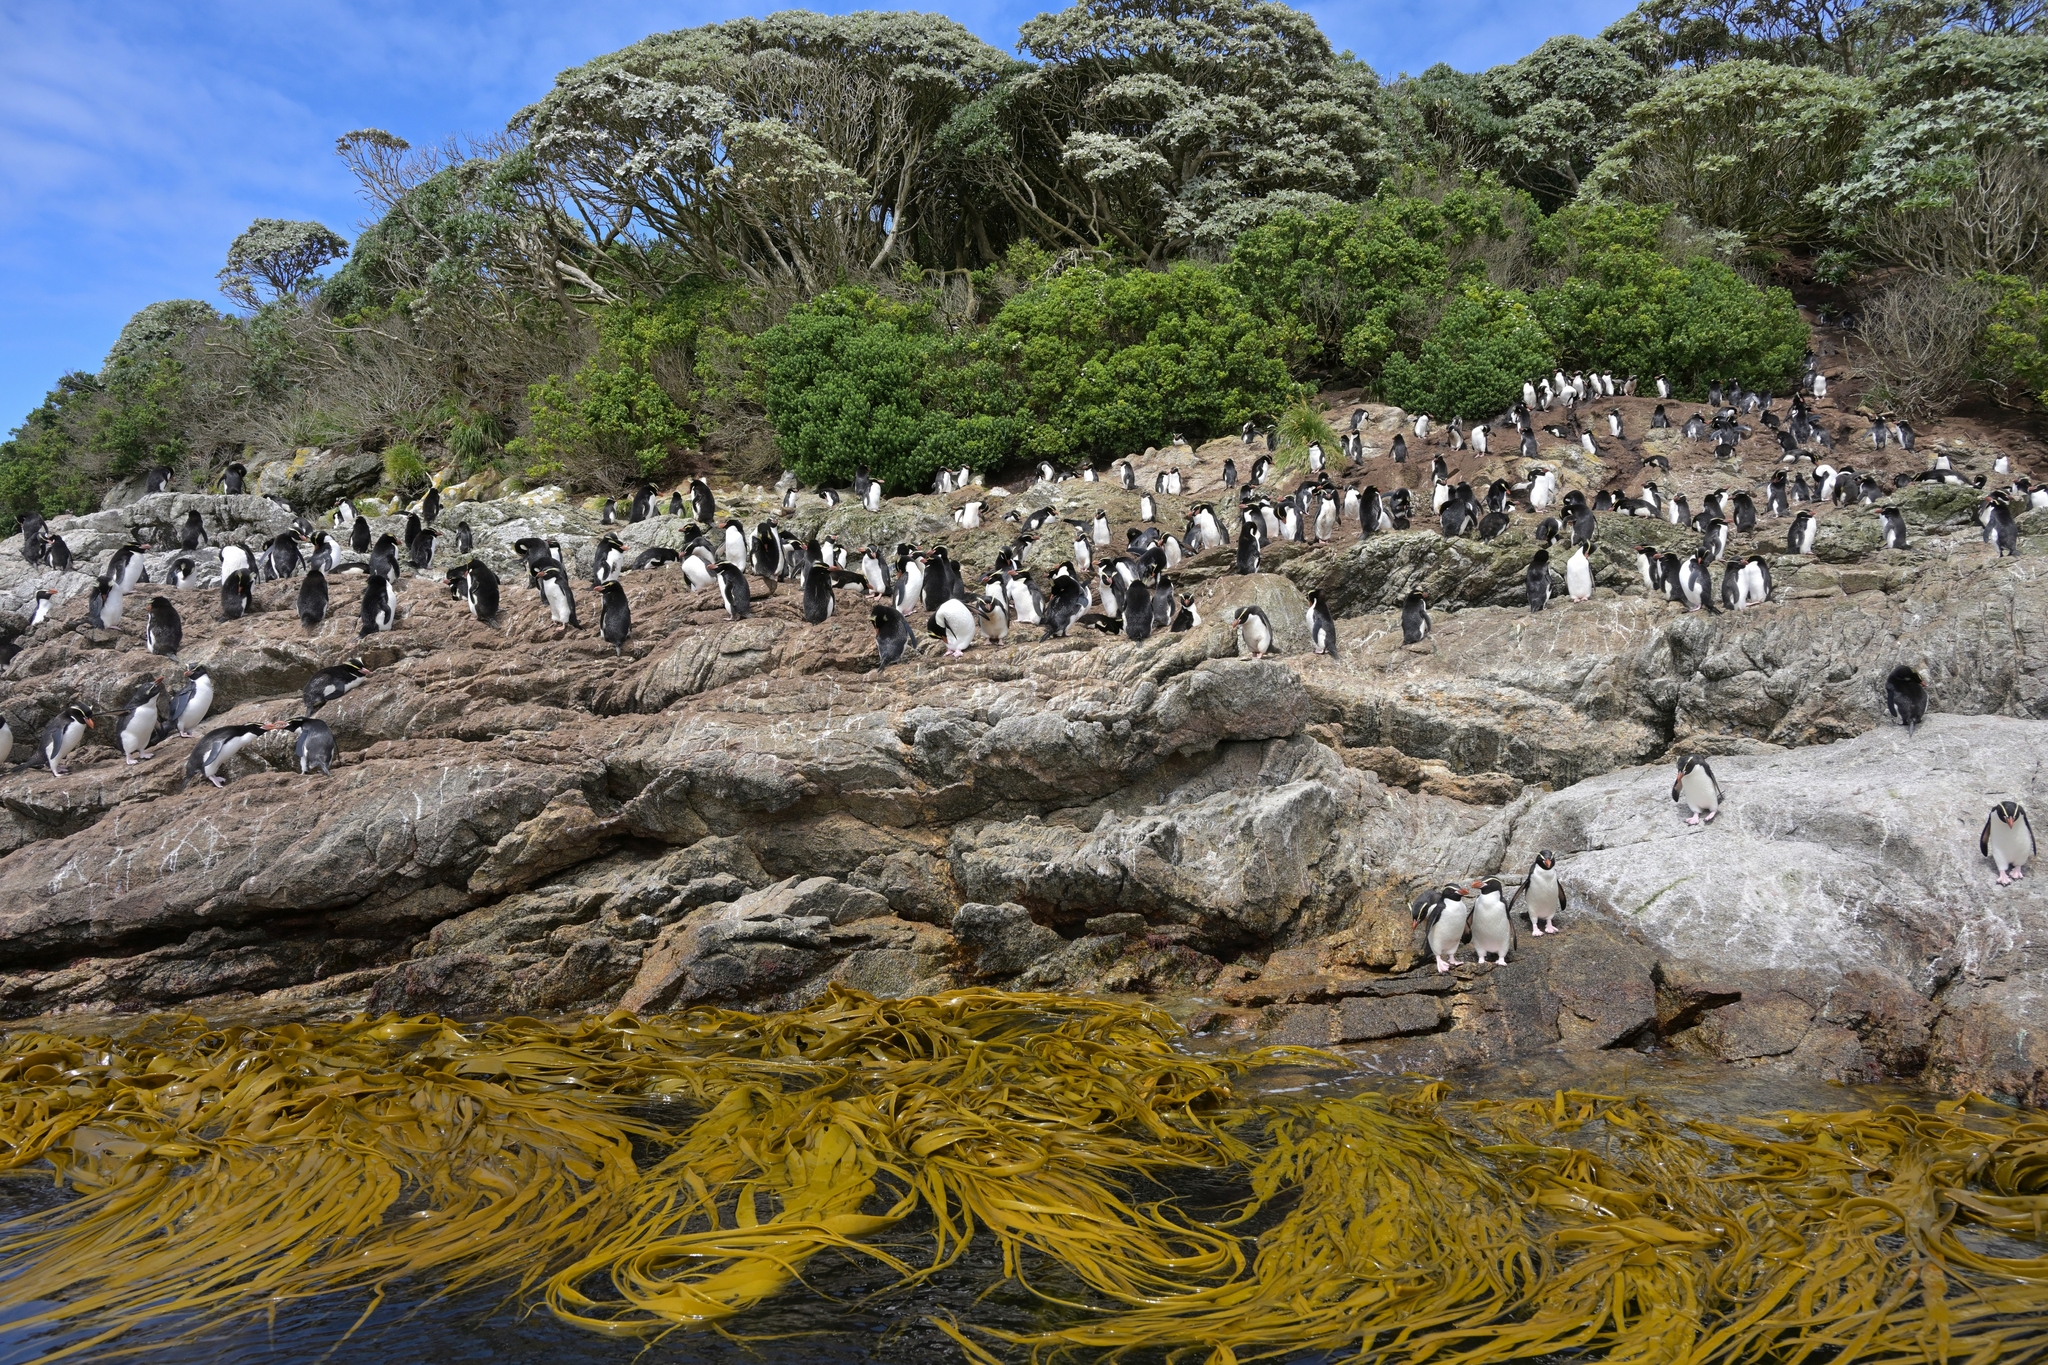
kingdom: Chromista
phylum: Ochrophyta
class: Phaeophyceae
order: Fucales
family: Durvillaeaceae
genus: Durvillaea
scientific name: Durvillaea antarctica
